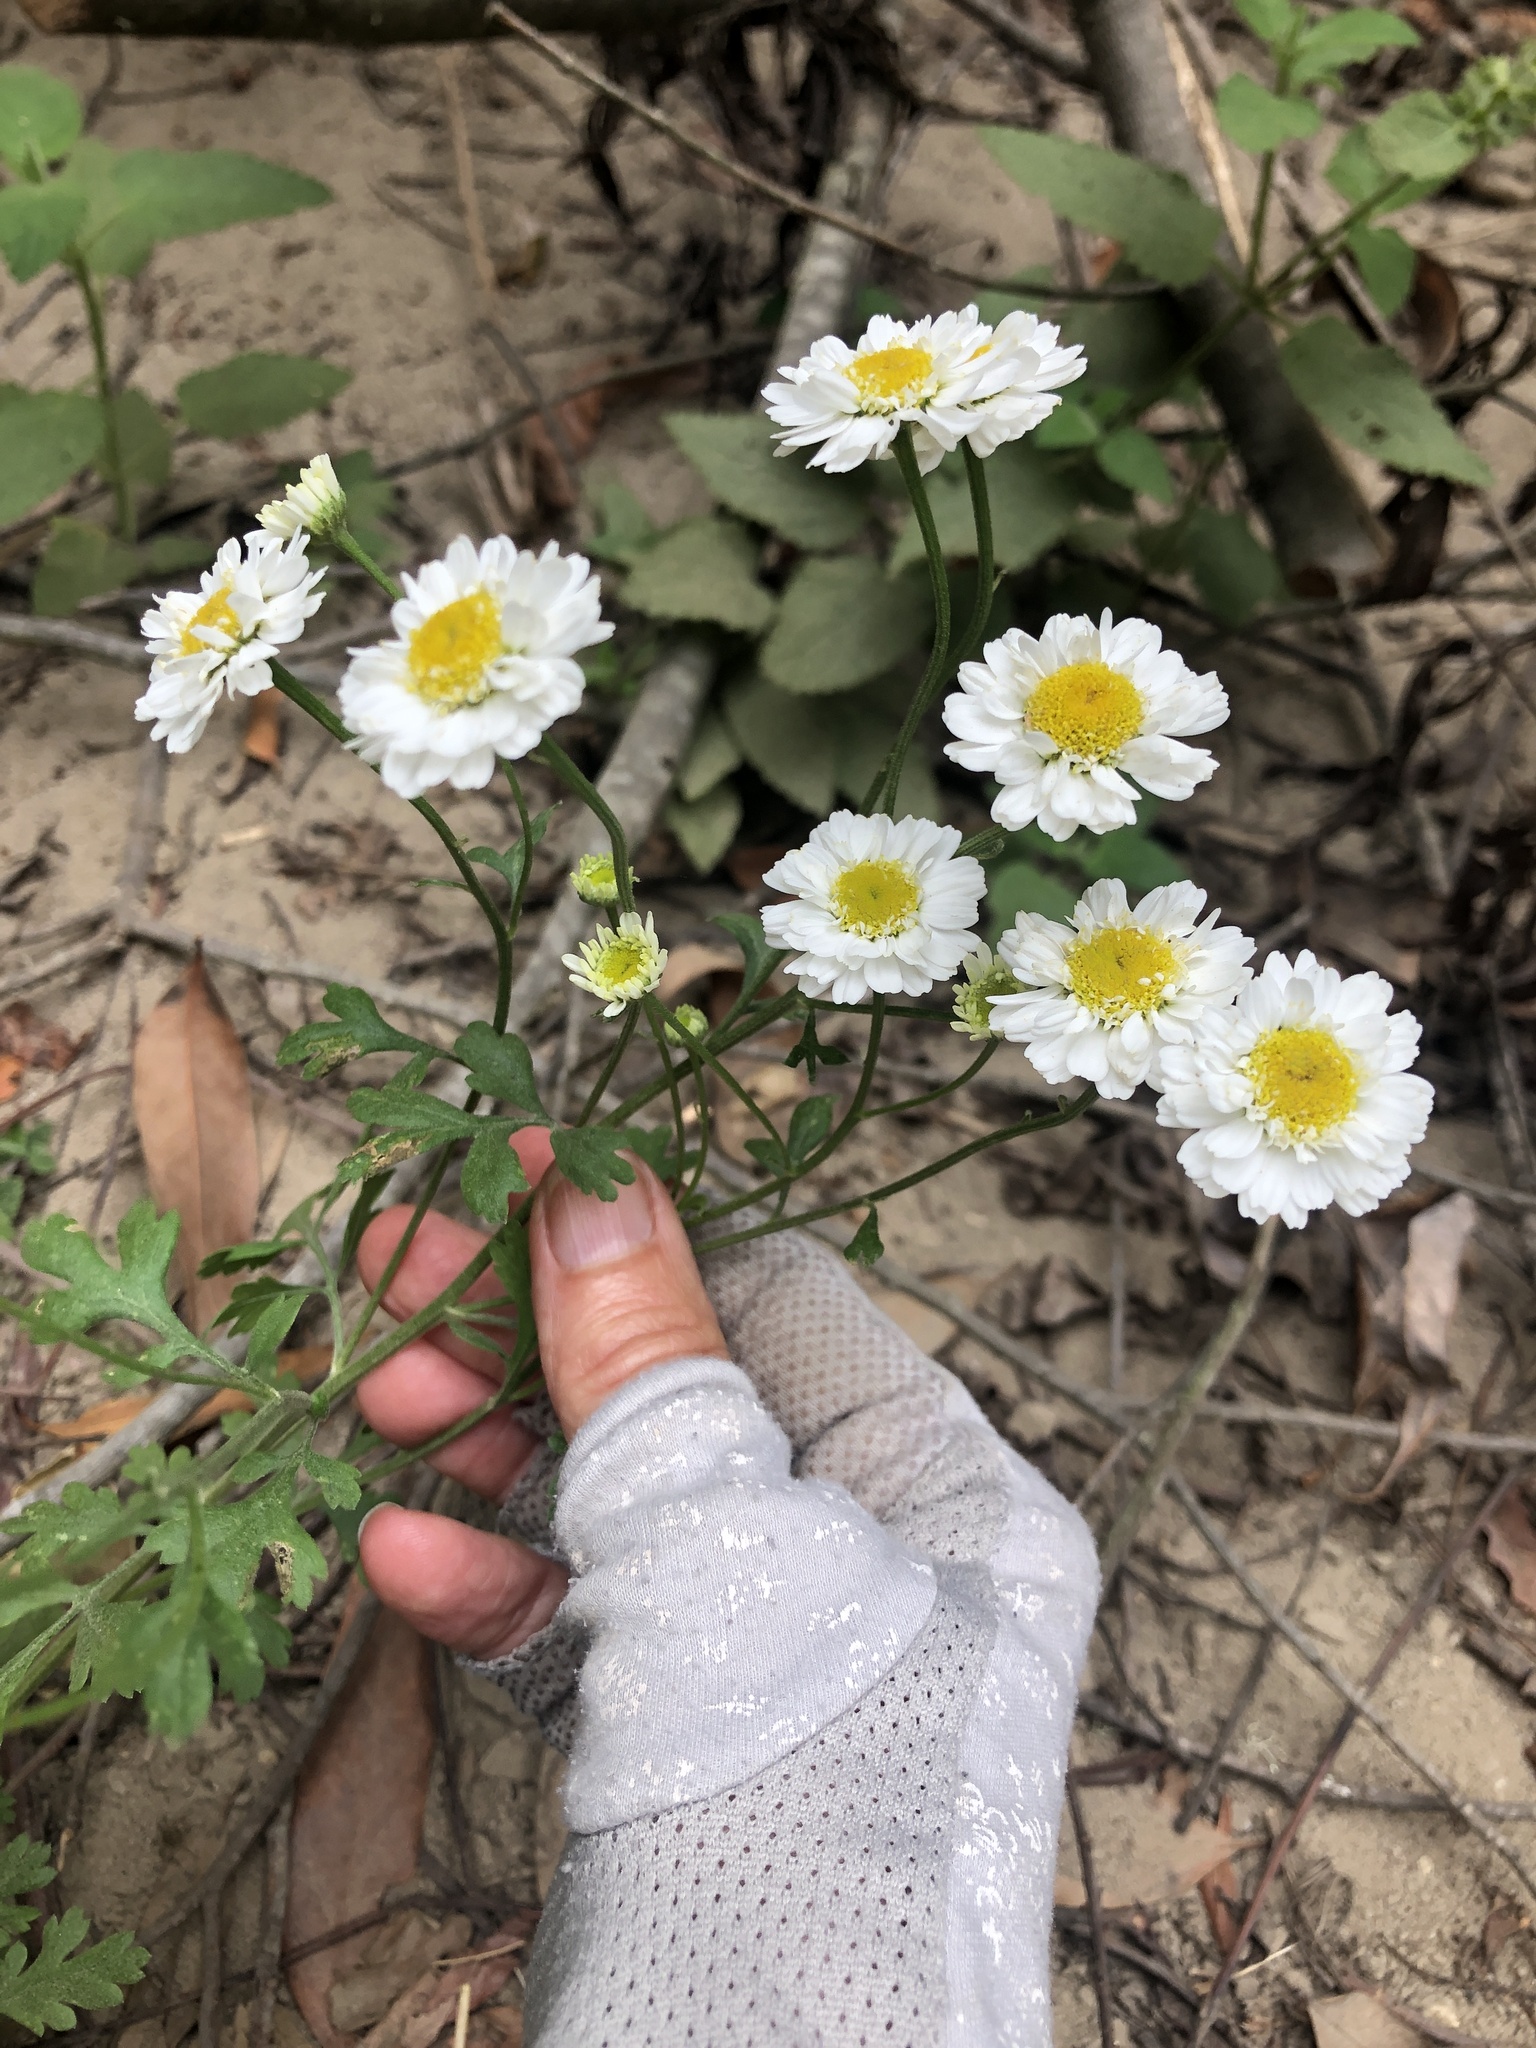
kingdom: Plantae
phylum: Tracheophyta
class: Magnoliopsida
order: Asterales
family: Asteraceae
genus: Tanacetum
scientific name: Tanacetum parthenium
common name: Feverfew
